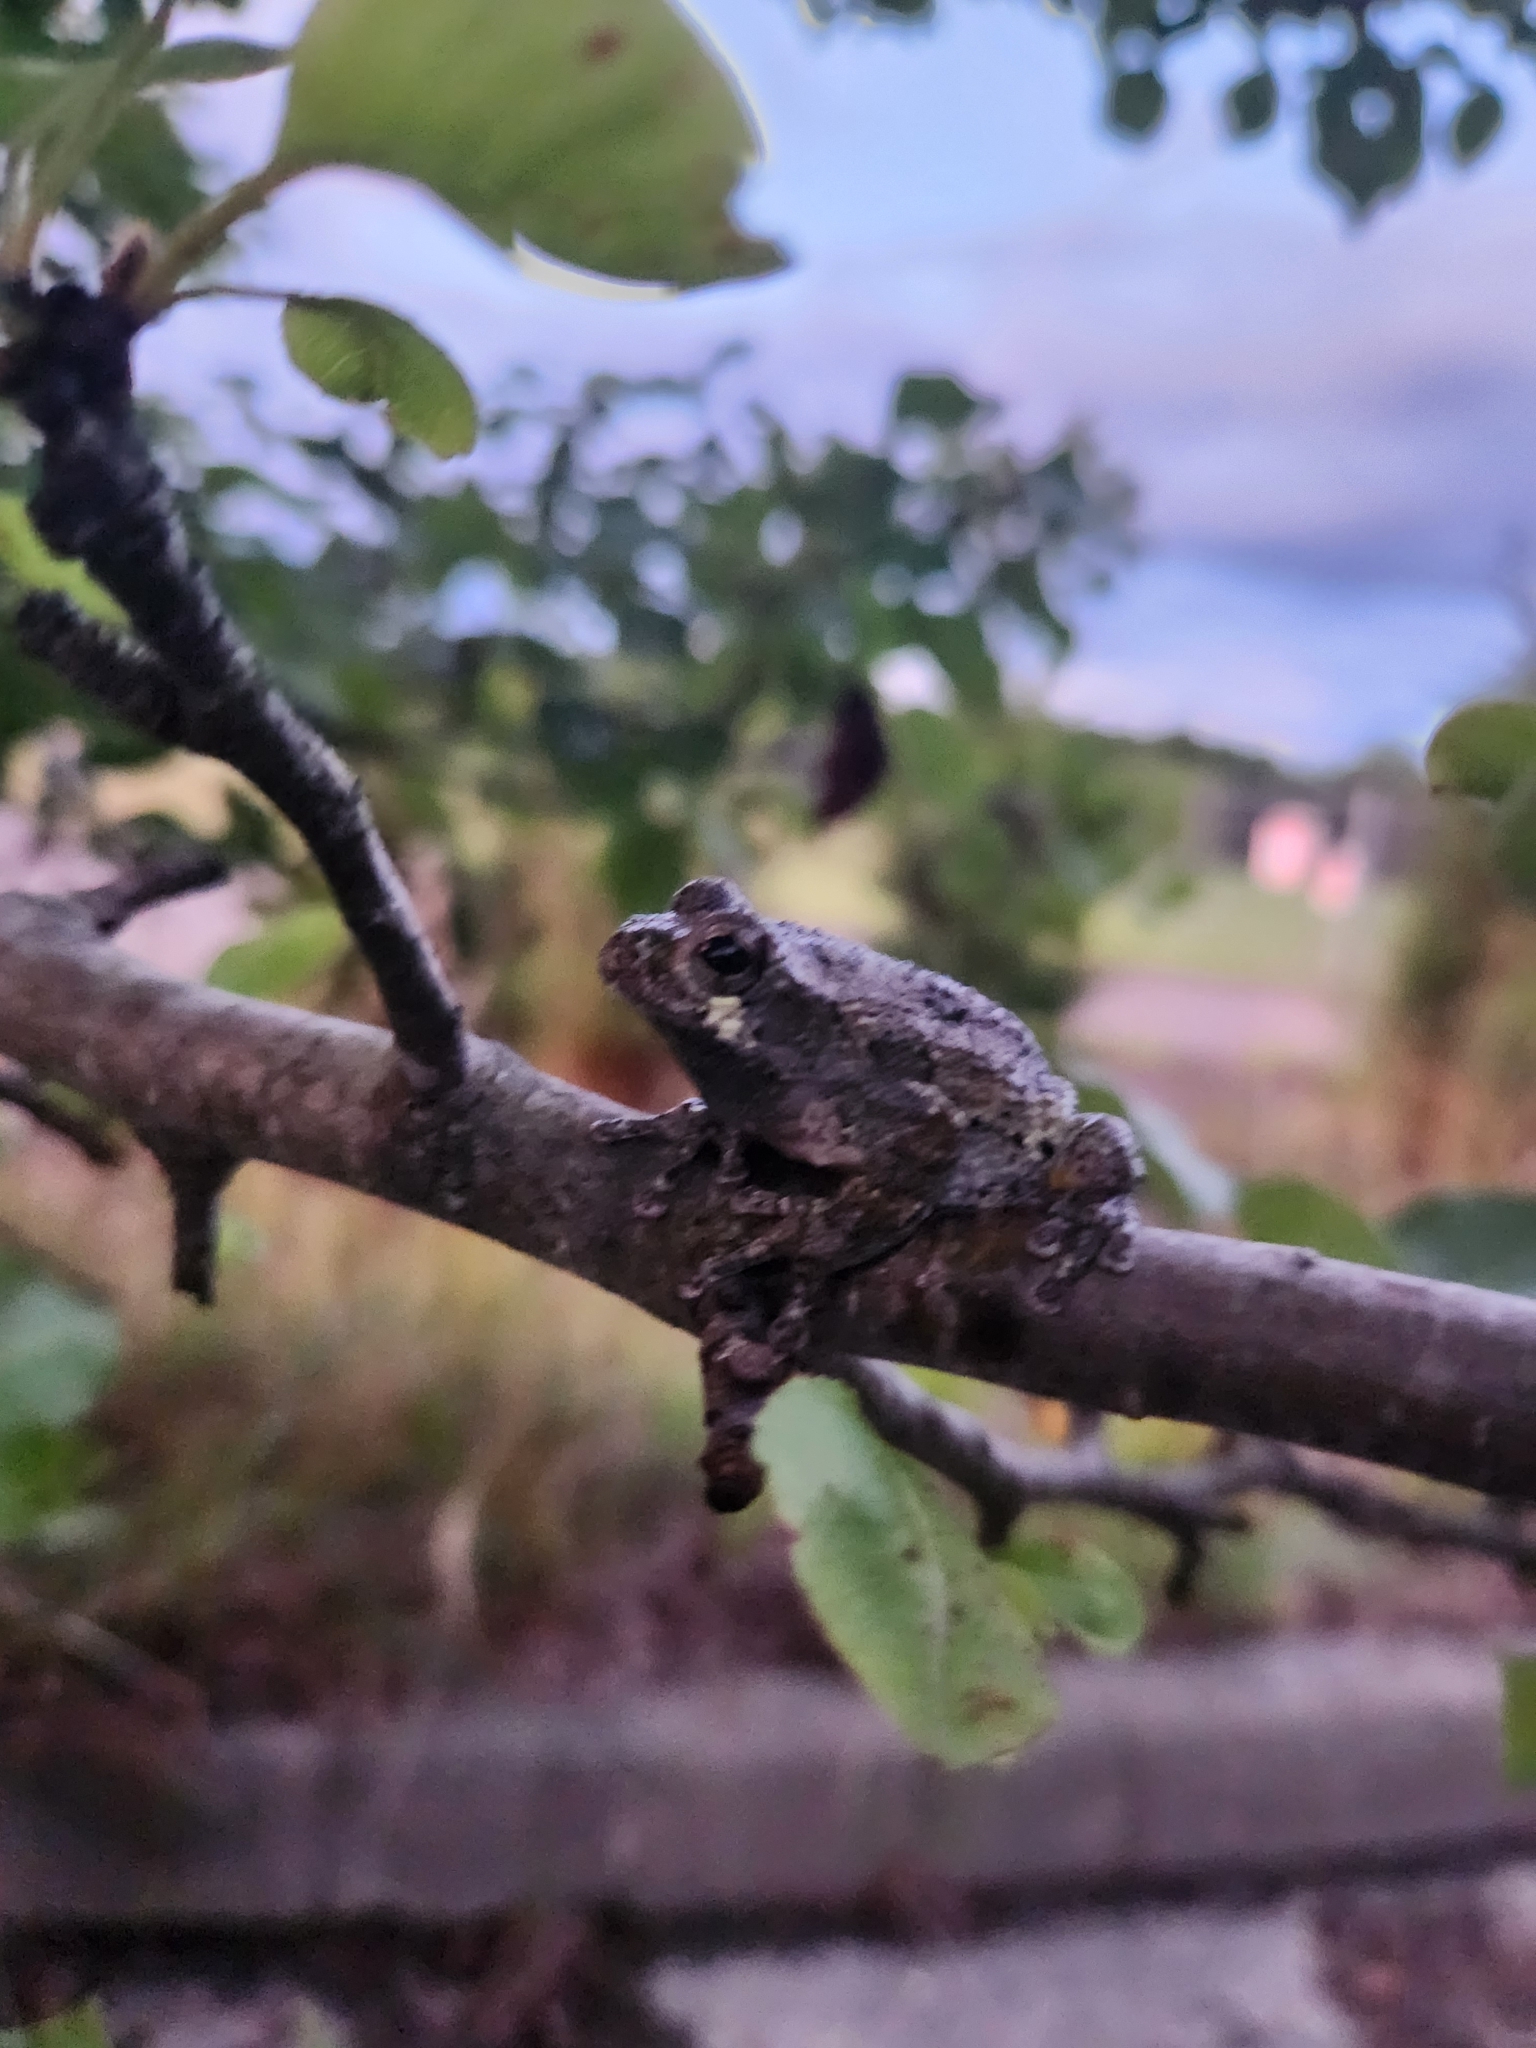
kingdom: Animalia
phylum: Chordata
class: Amphibia
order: Anura
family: Hylidae
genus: Dryophytes
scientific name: Dryophytes versicolor
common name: Gray treefrog
